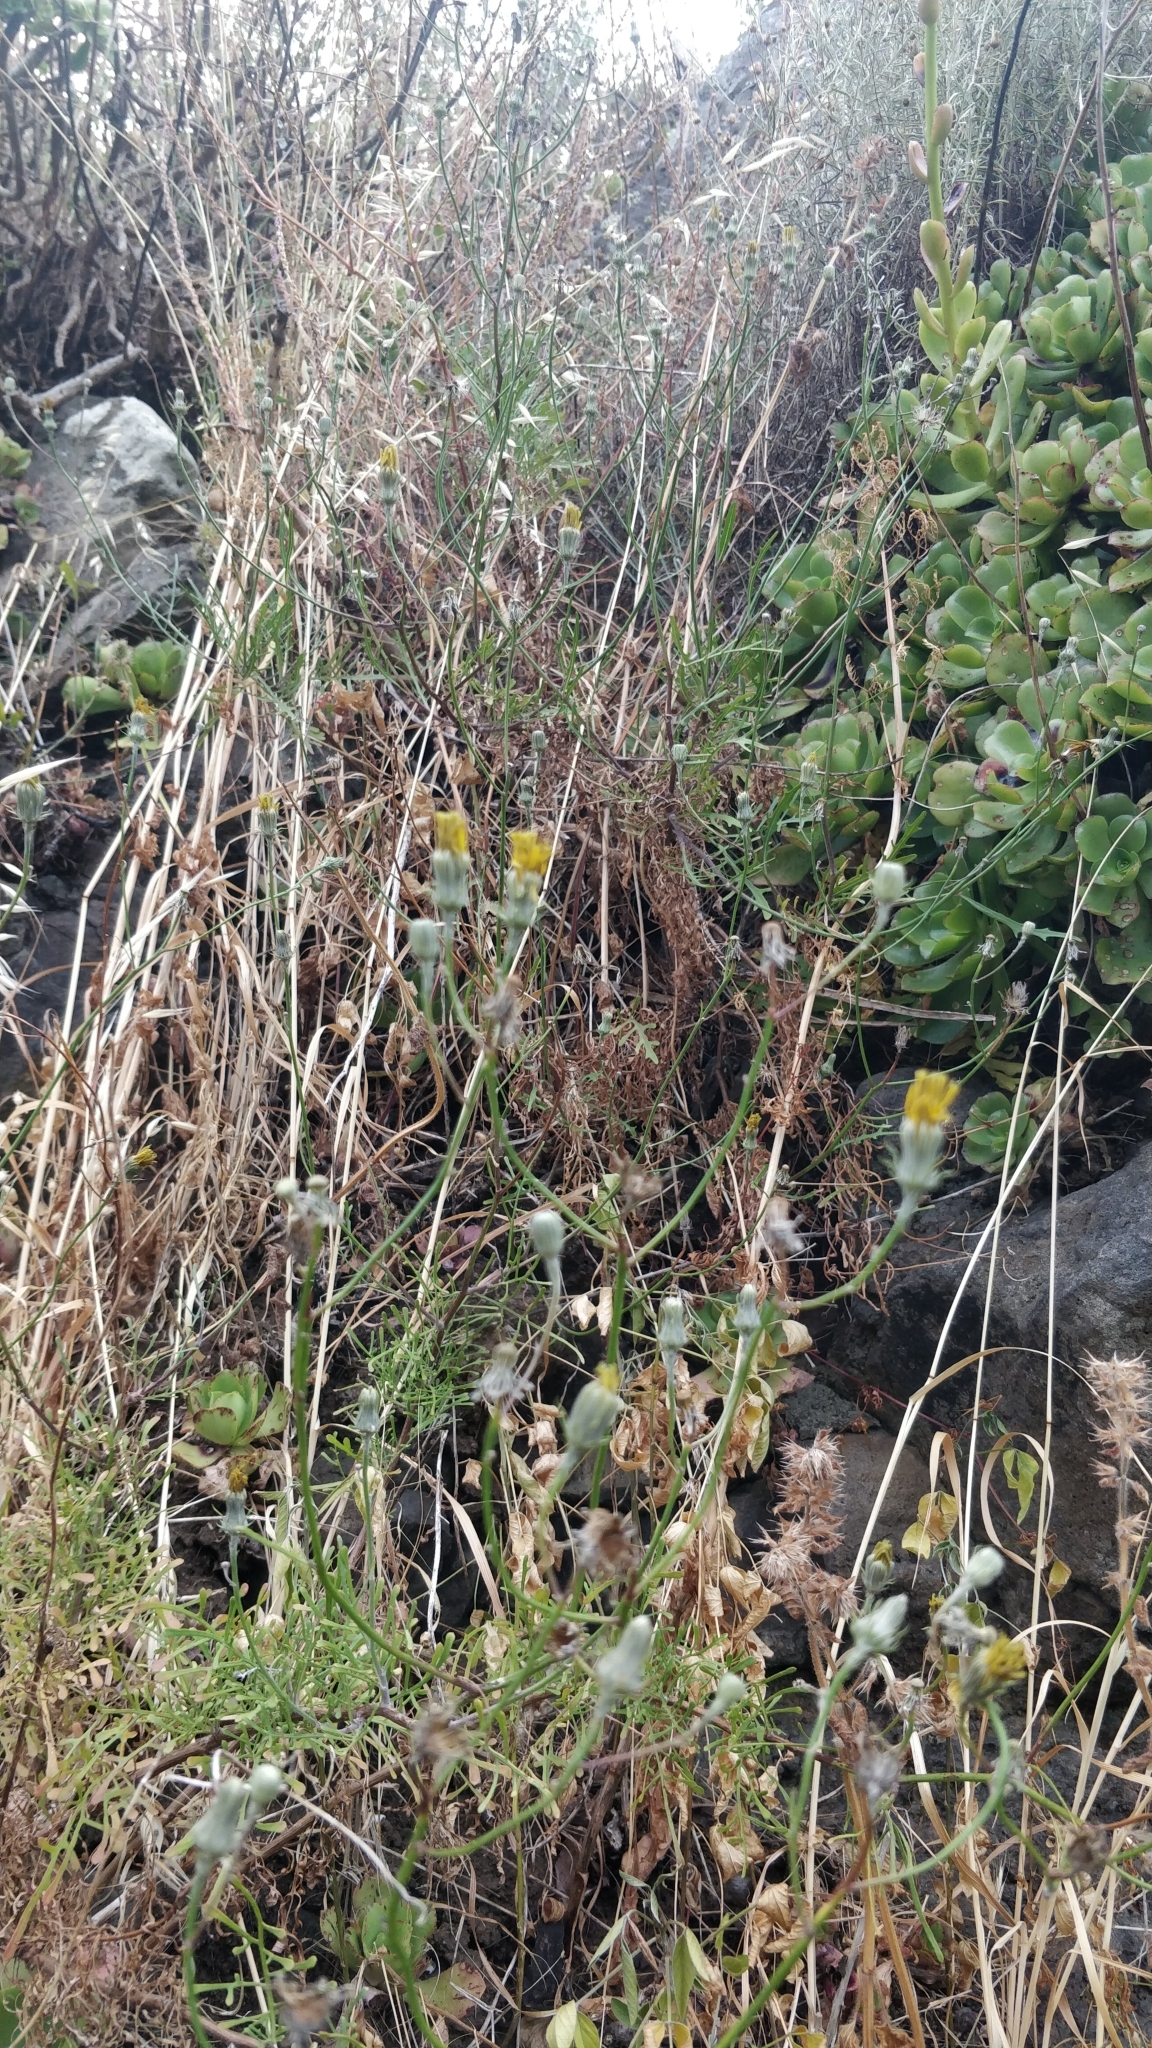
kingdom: Plantae
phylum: Tracheophyta
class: Magnoliopsida
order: Asterales
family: Asteraceae
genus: Tolpis
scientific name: Tolpis succulenta
